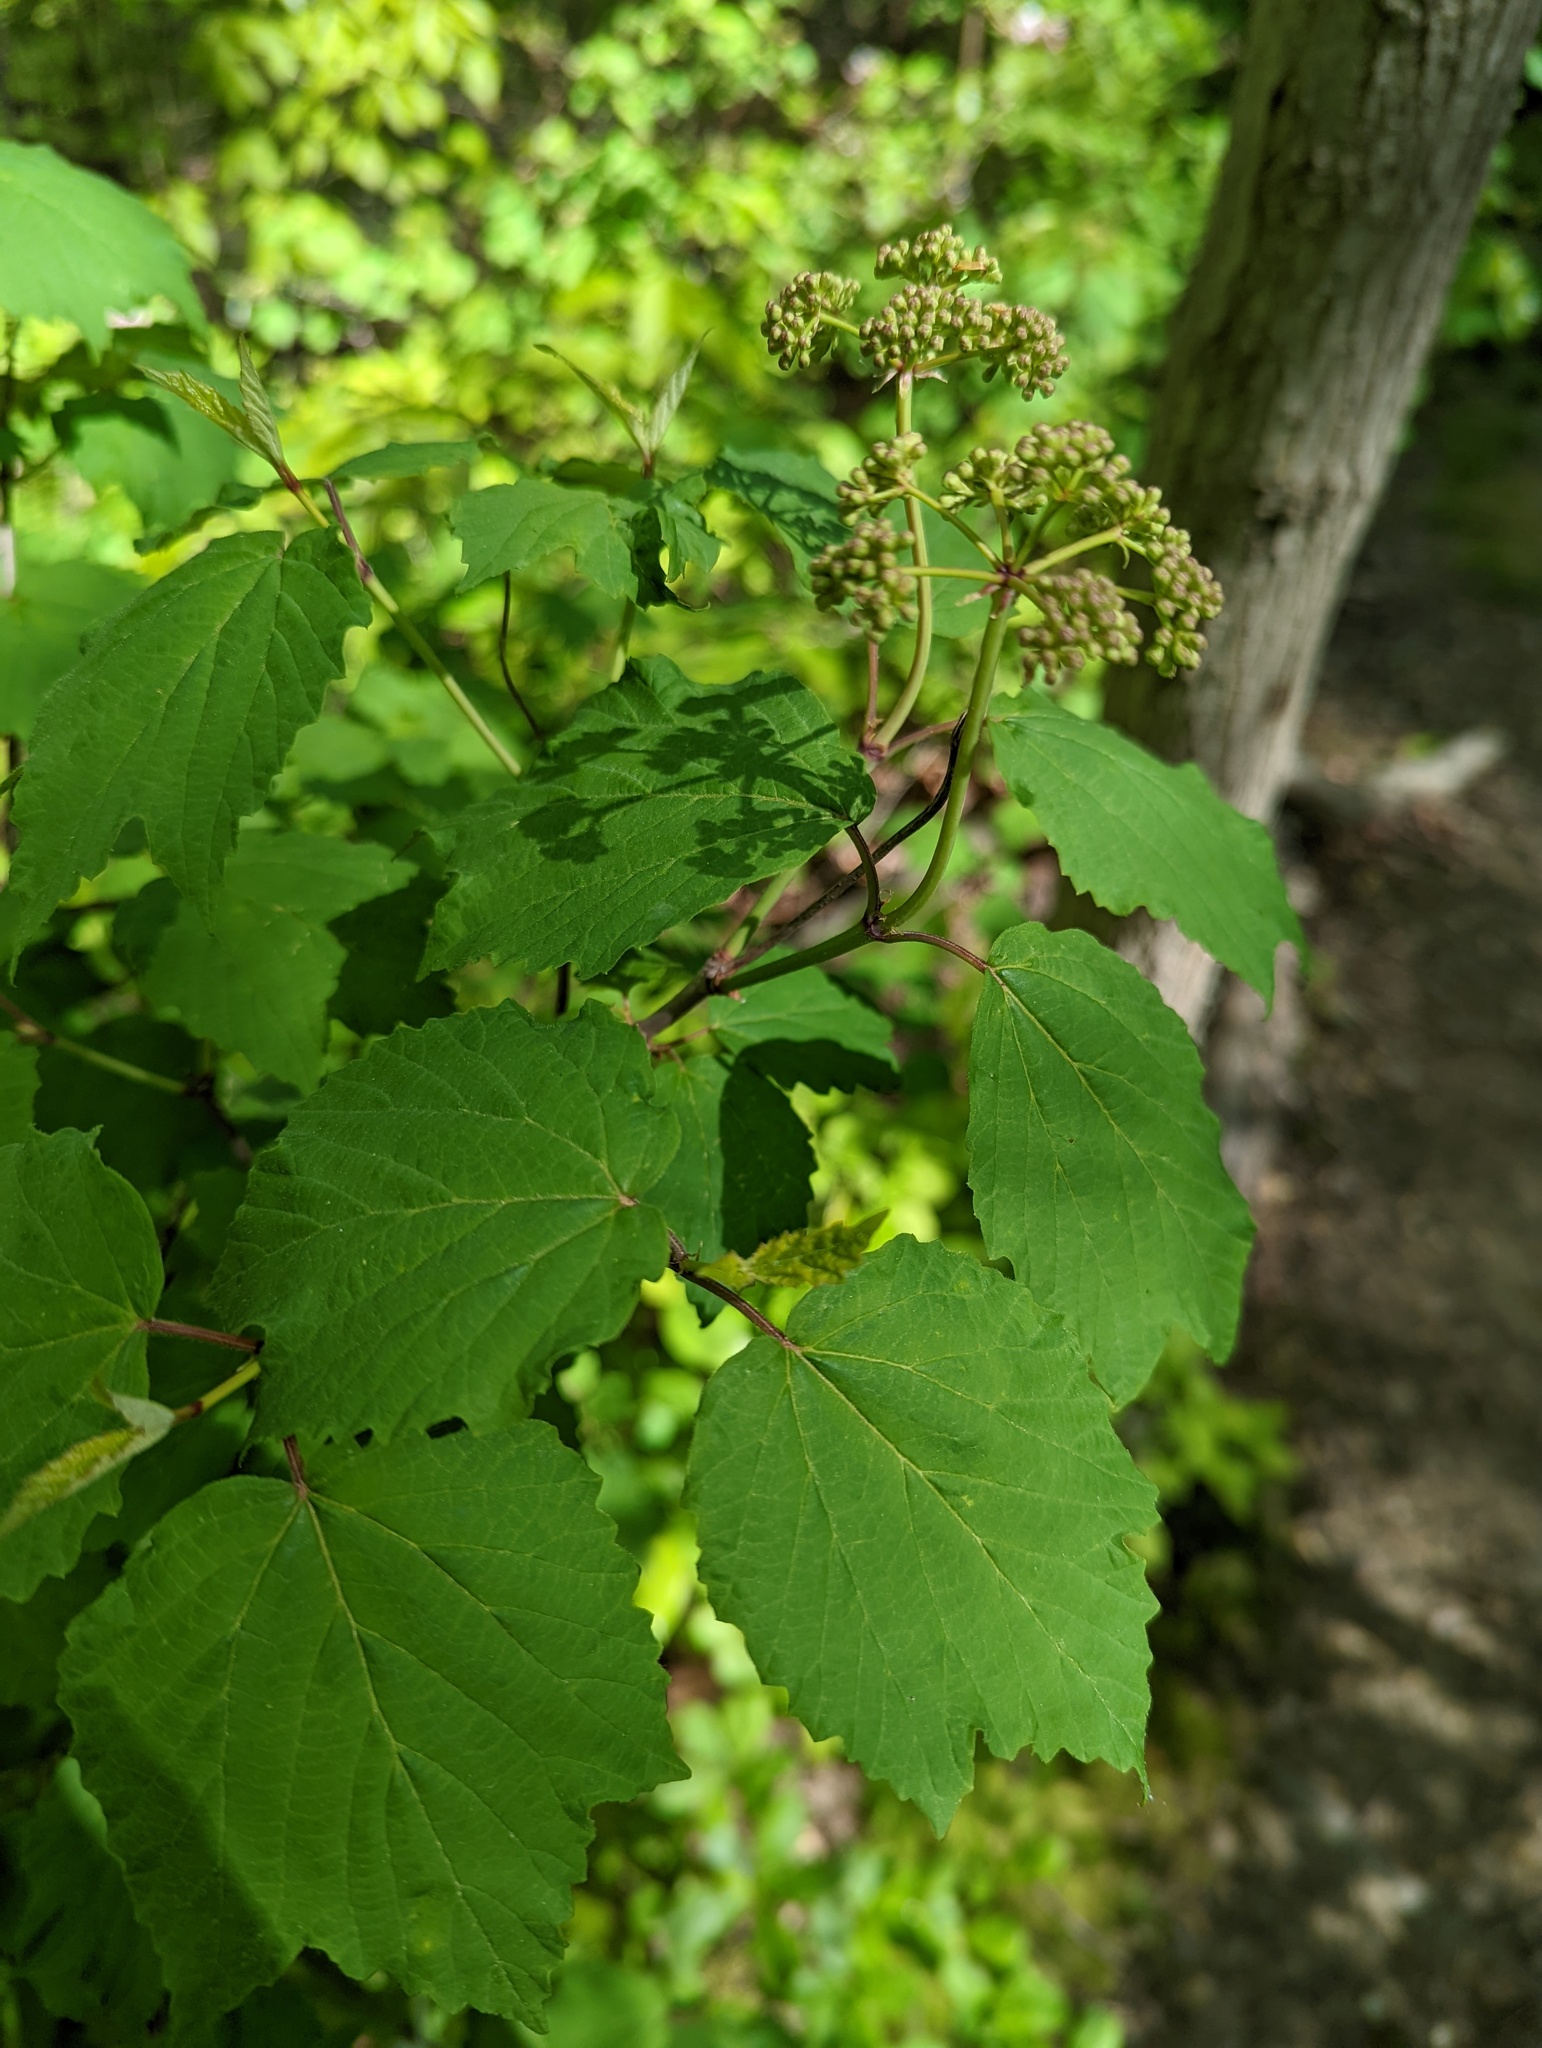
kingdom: Plantae
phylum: Tracheophyta
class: Magnoliopsida
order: Dipsacales
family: Viburnaceae
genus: Viburnum
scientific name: Viburnum acerifolium
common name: Dockmackie
